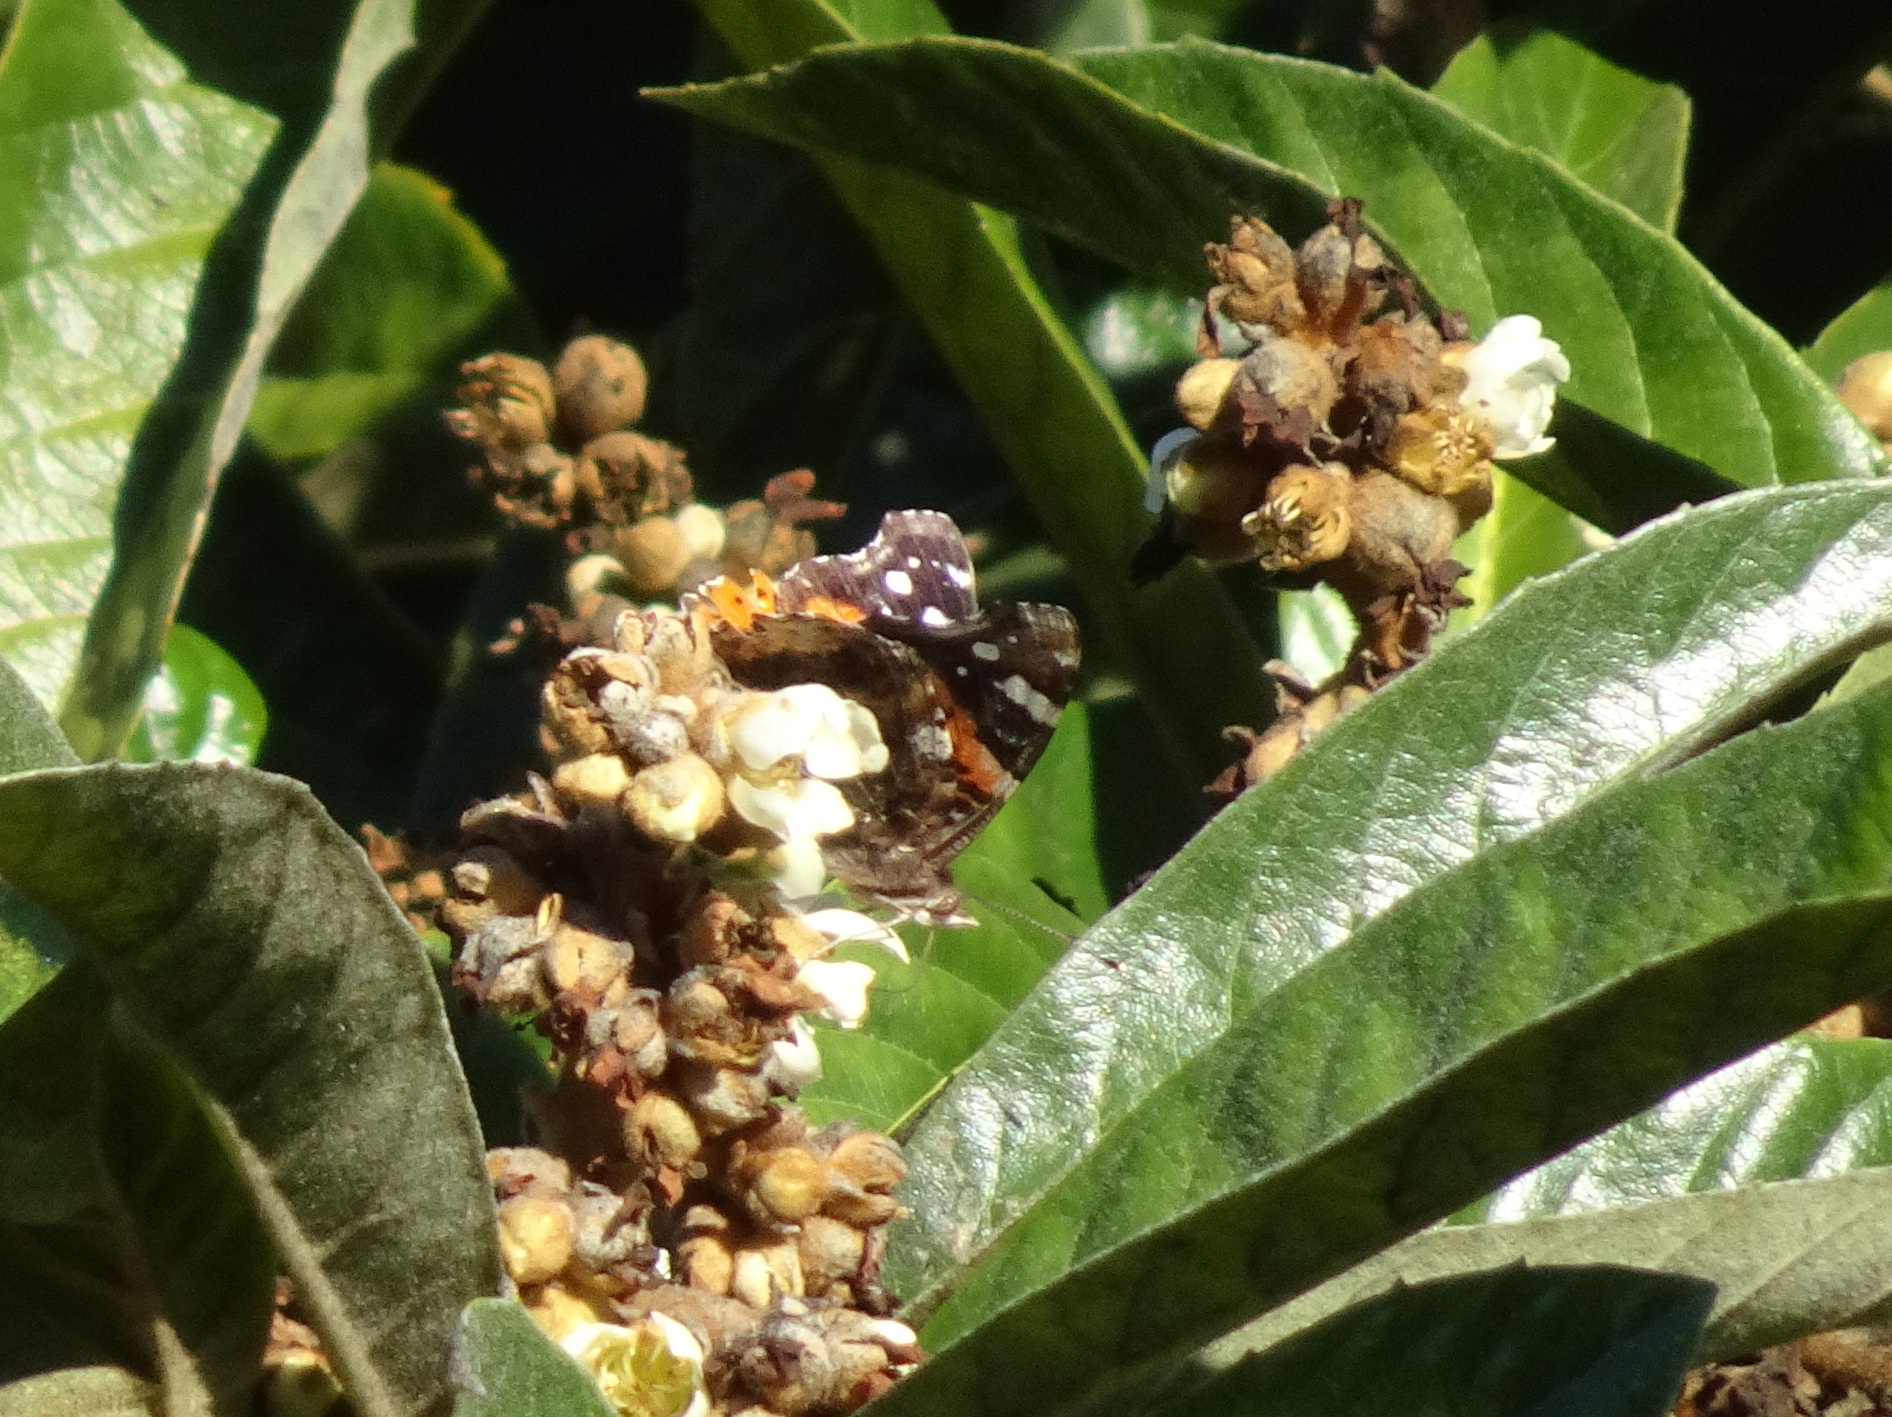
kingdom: Animalia
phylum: Arthropoda
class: Insecta
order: Lepidoptera
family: Nymphalidae
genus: Vanessa
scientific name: Vanessa atalanta
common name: Red admiral
